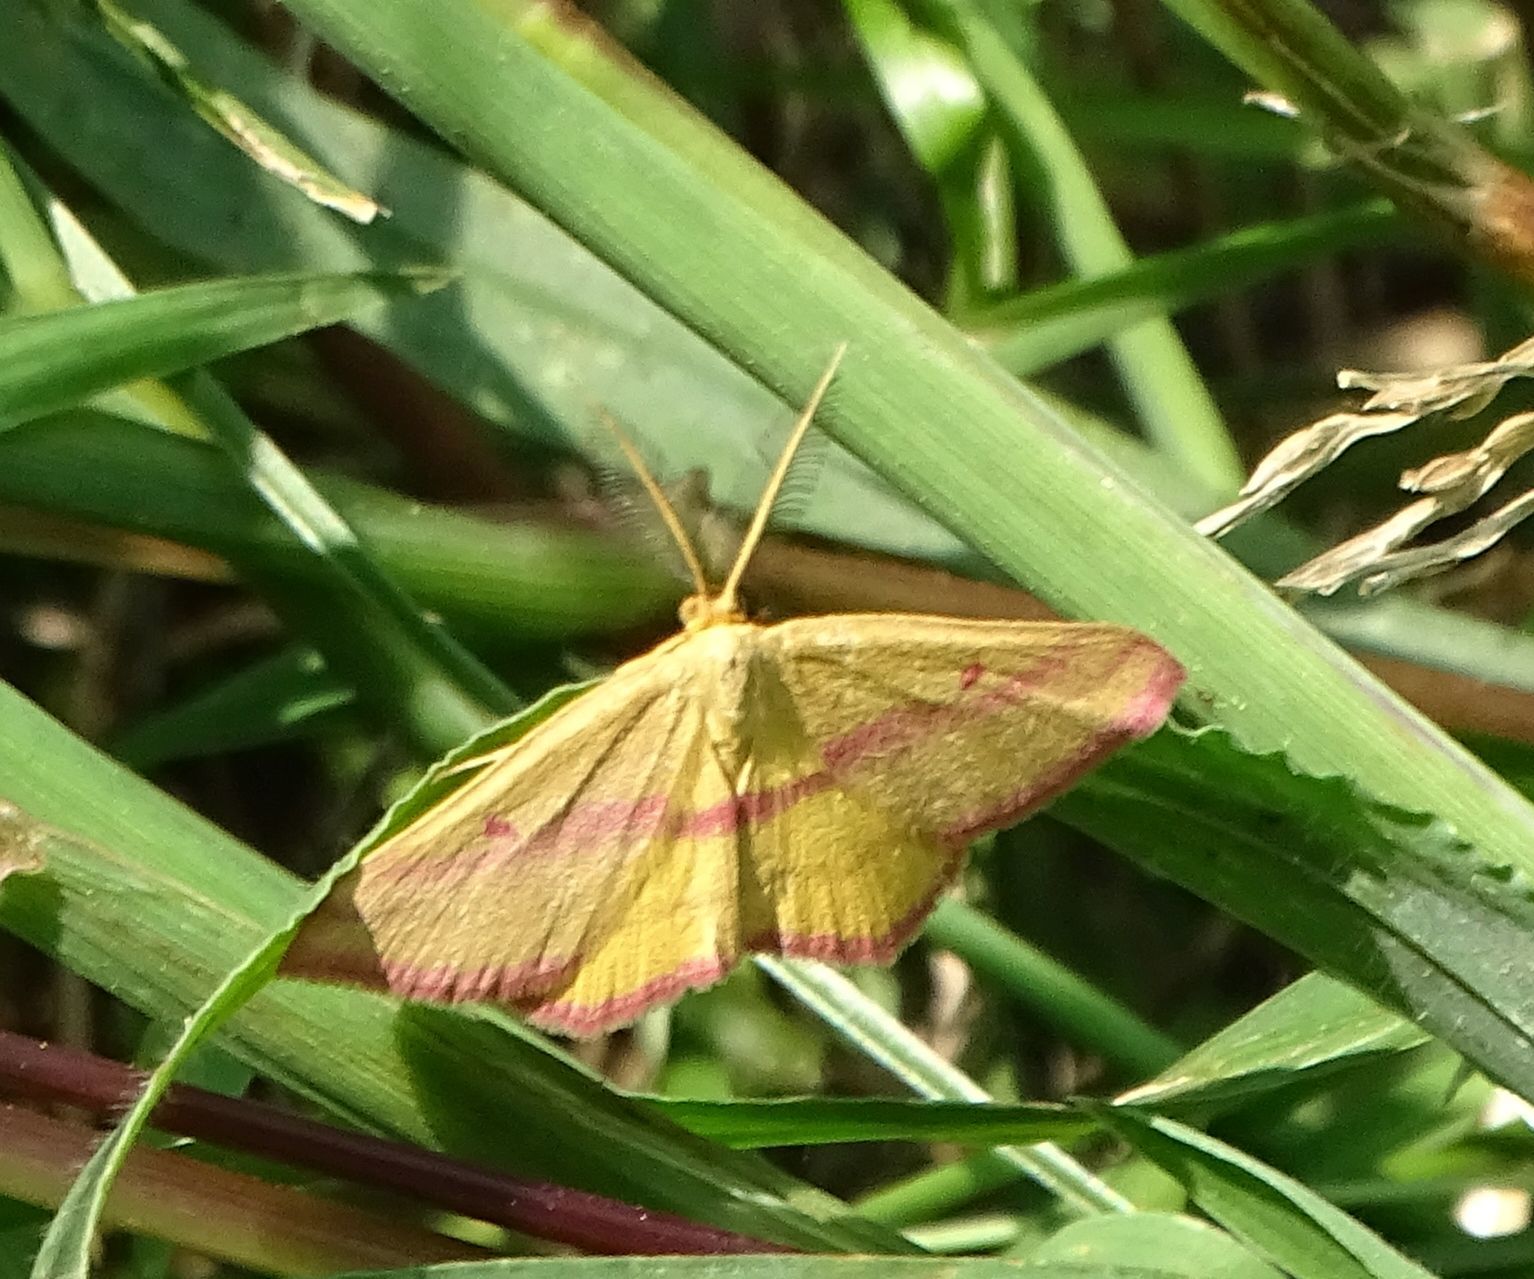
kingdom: Animalia
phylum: Arthropoda
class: Insecta
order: Lepidoptera
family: Geometridae
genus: Haematopis
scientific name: Haematopis grataria
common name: Chickweed geometer
